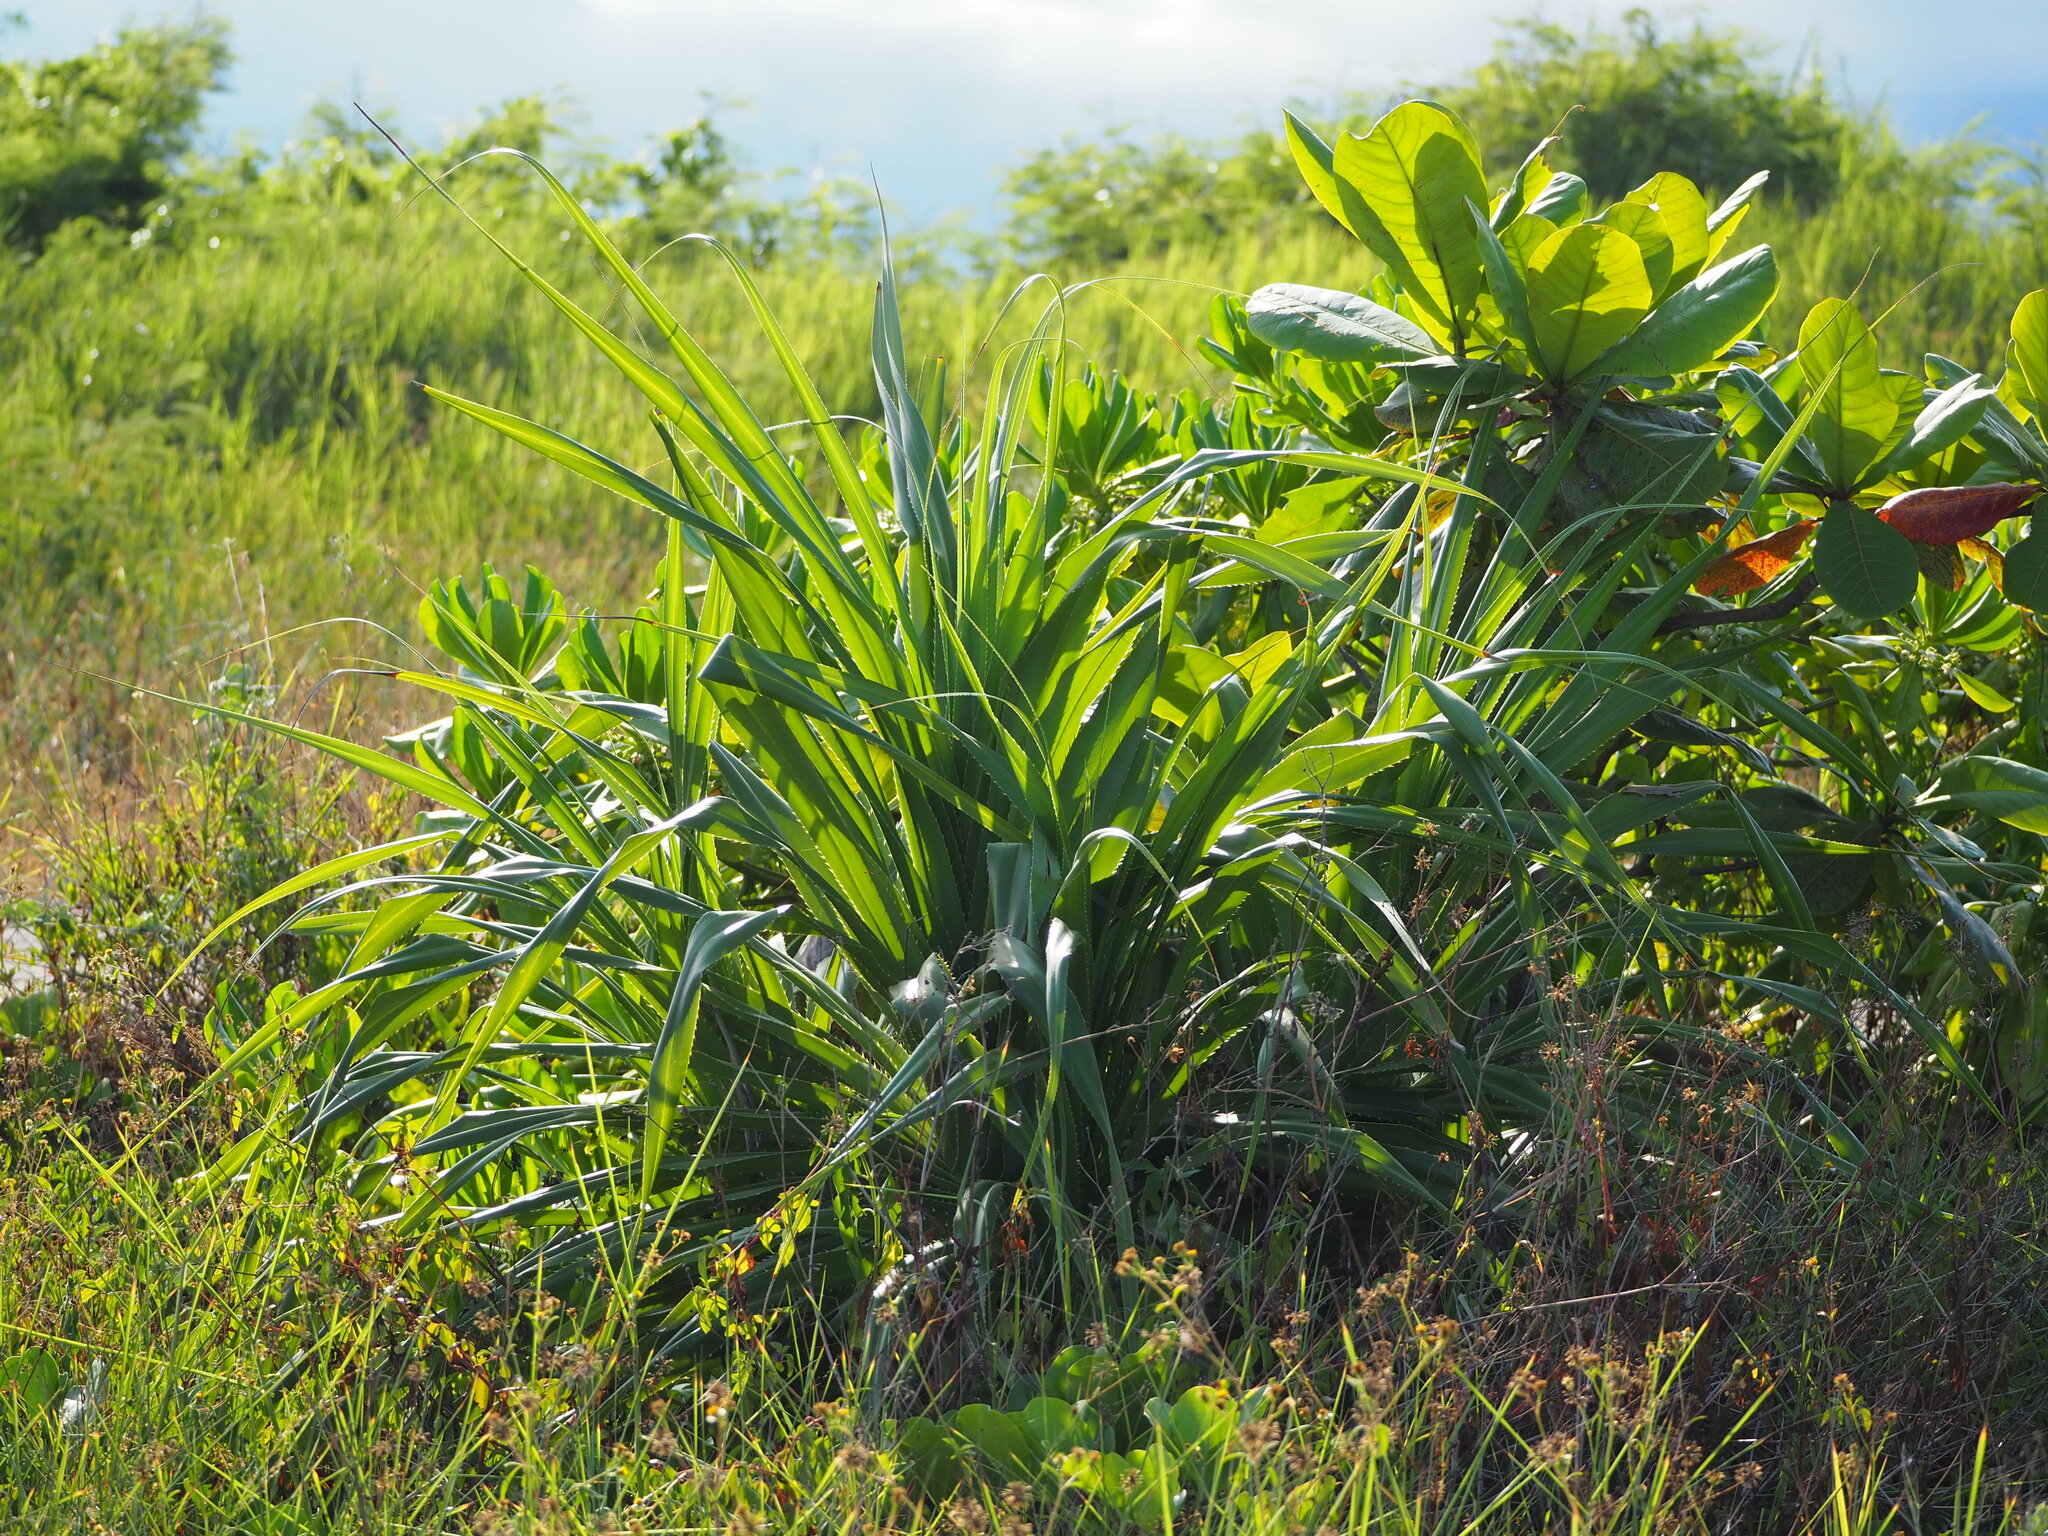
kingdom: Plantae
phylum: Tracheophyta
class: Liliopsida
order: Pandanales
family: Pandanaceae
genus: Pandanus
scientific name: Pandanus odorifer
